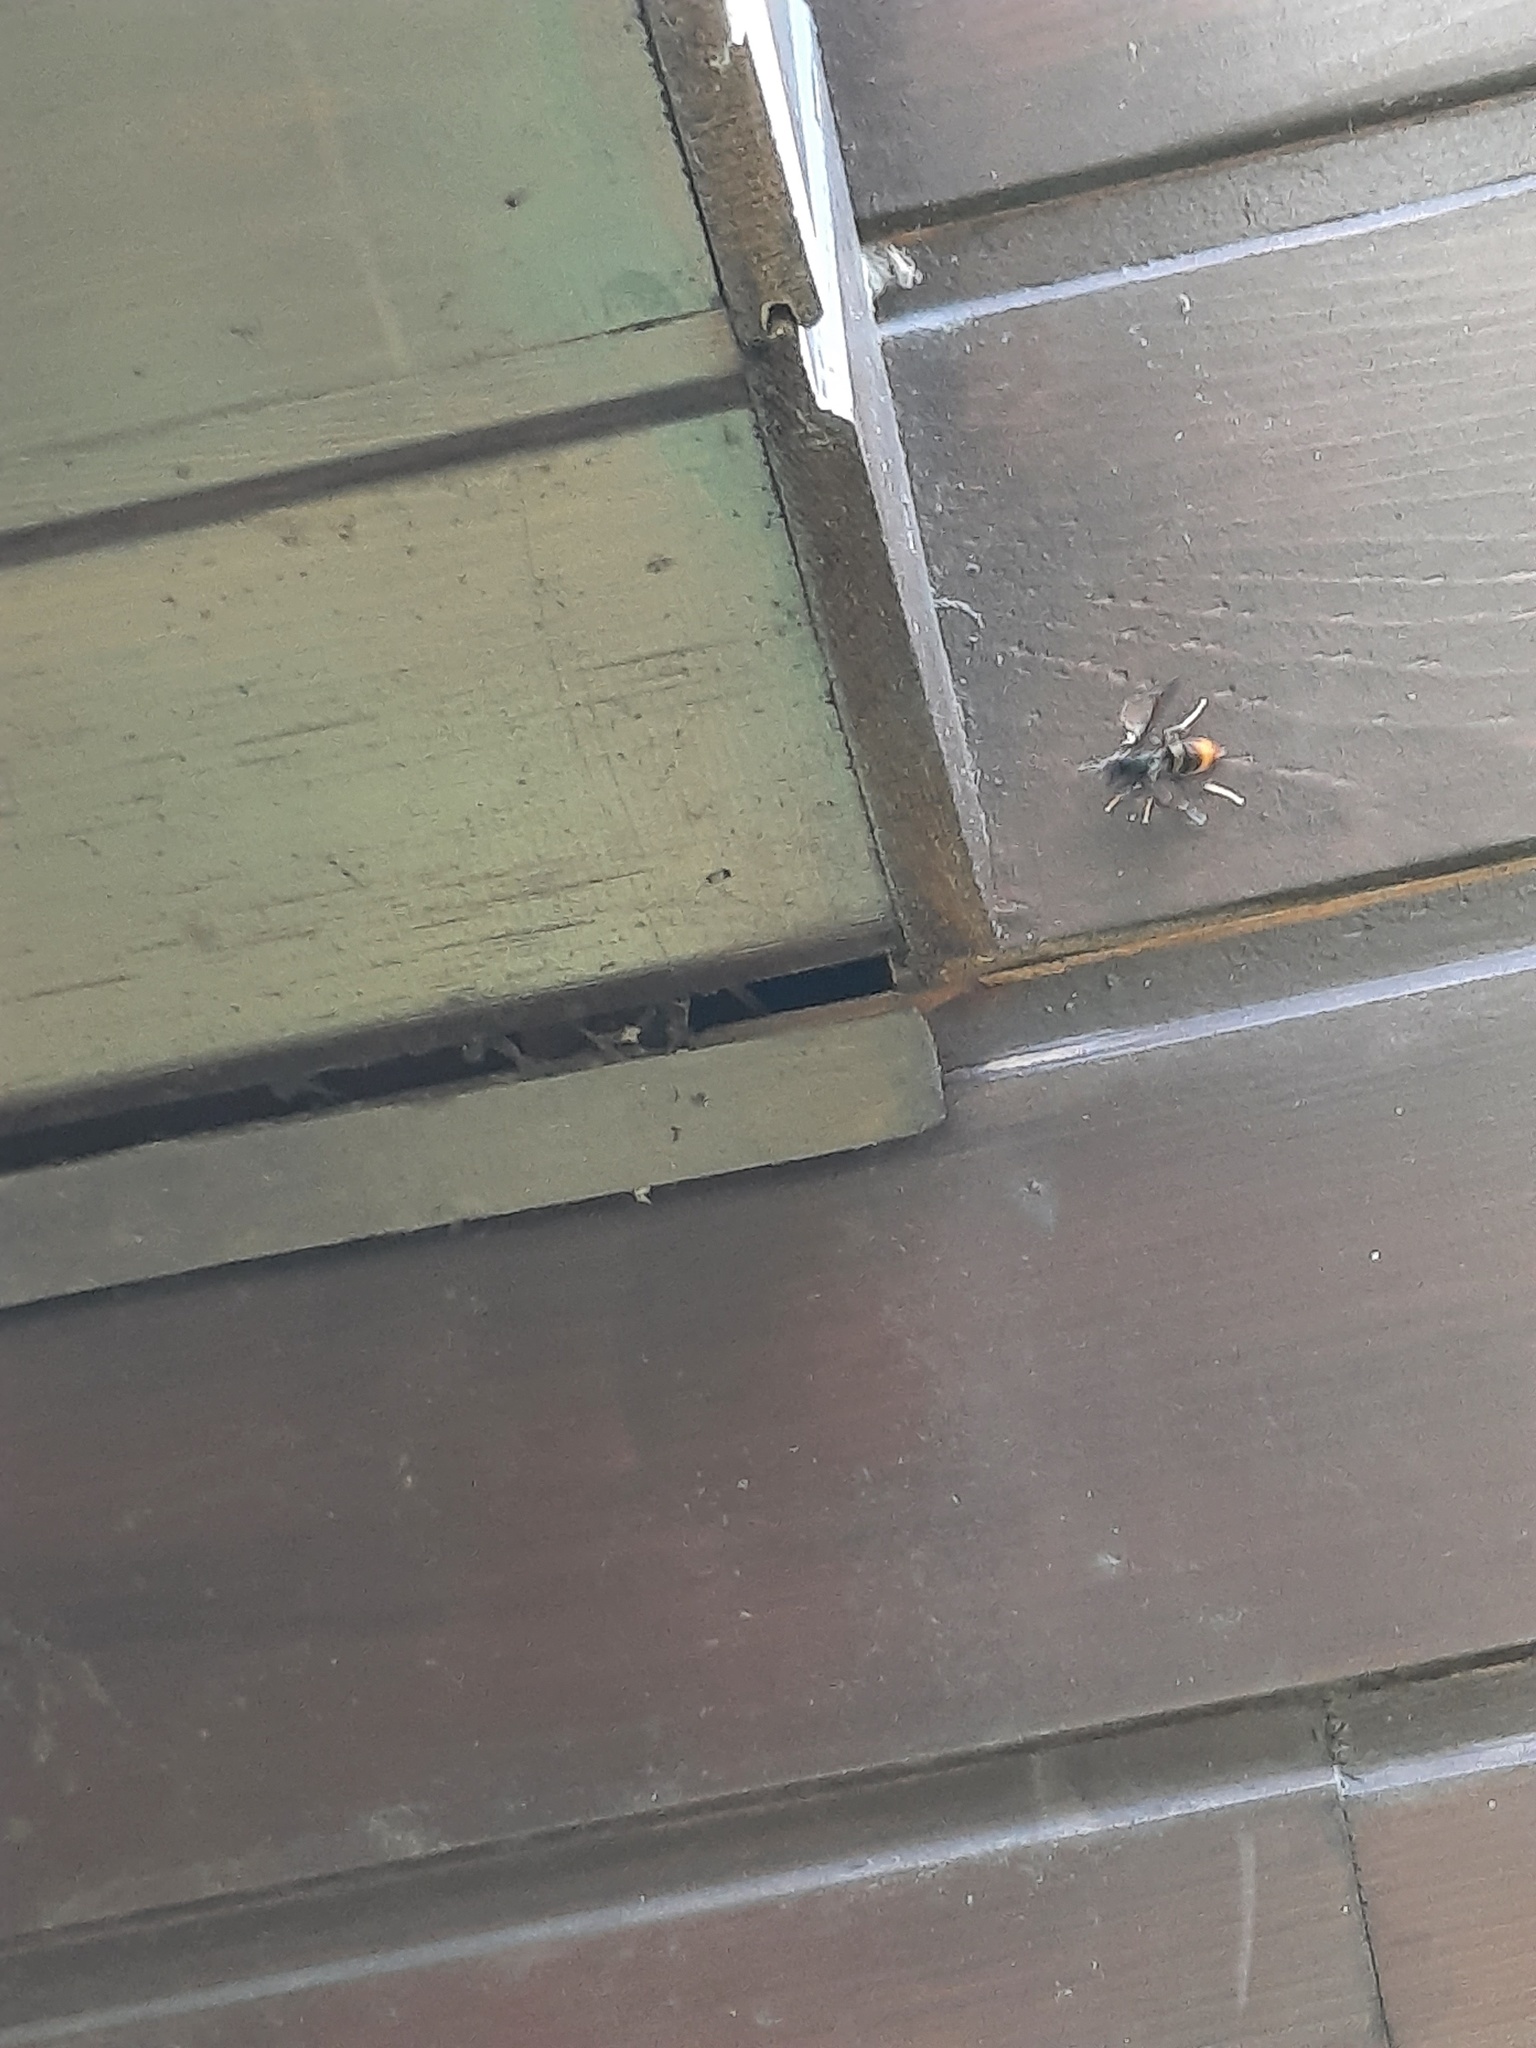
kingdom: Animalia
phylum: Arthropoda
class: Insecta
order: Hymenoptera
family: Vespidae
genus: Vespa
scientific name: Vespa velutina
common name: Asian hornet
